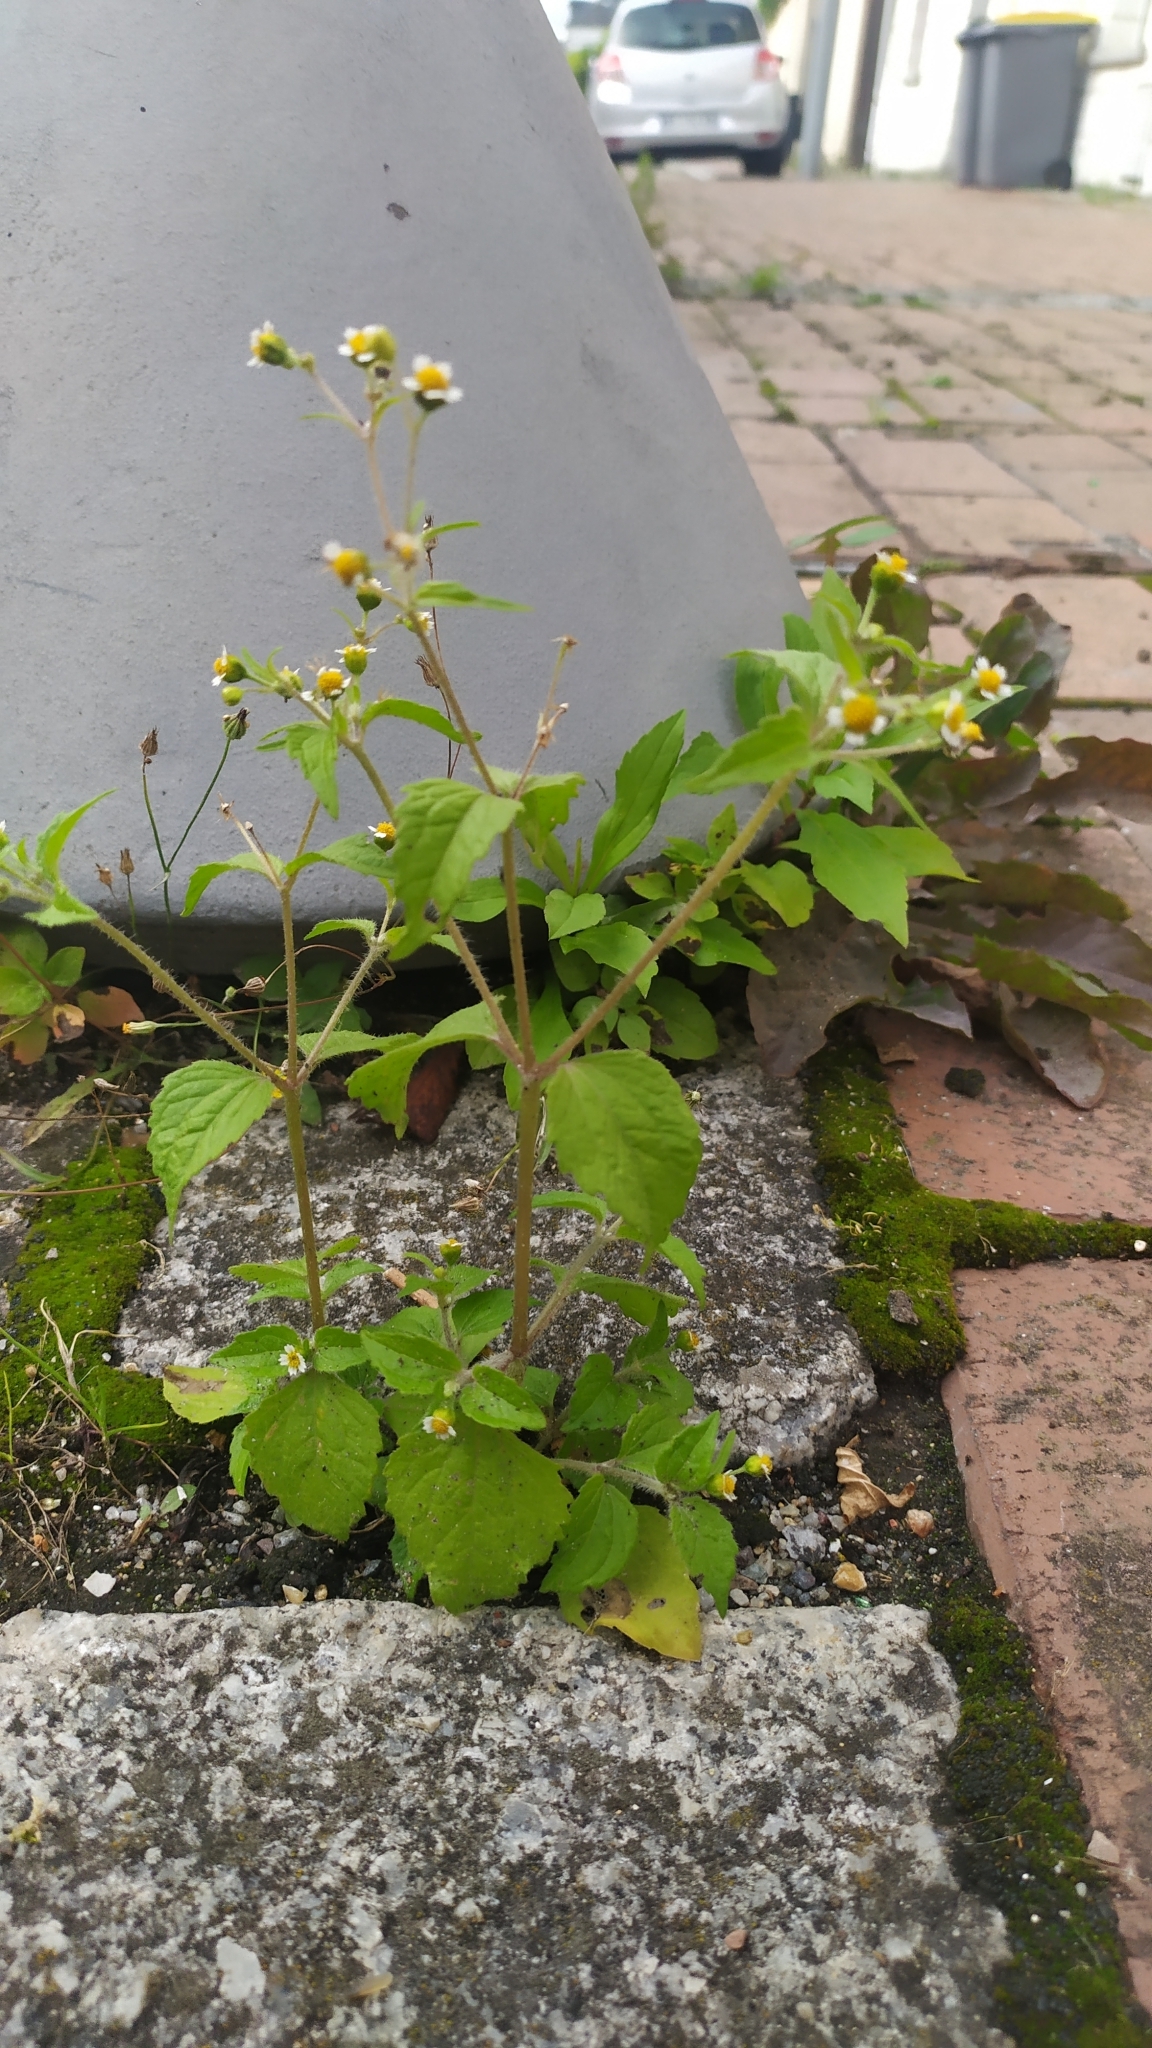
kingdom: Plantae
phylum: Tracheophyta
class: Magnoliopsida
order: Asterales
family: Asteraceae
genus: Galinsoga
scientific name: Galinsoga quadriradiata
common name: Shaggy soldier
